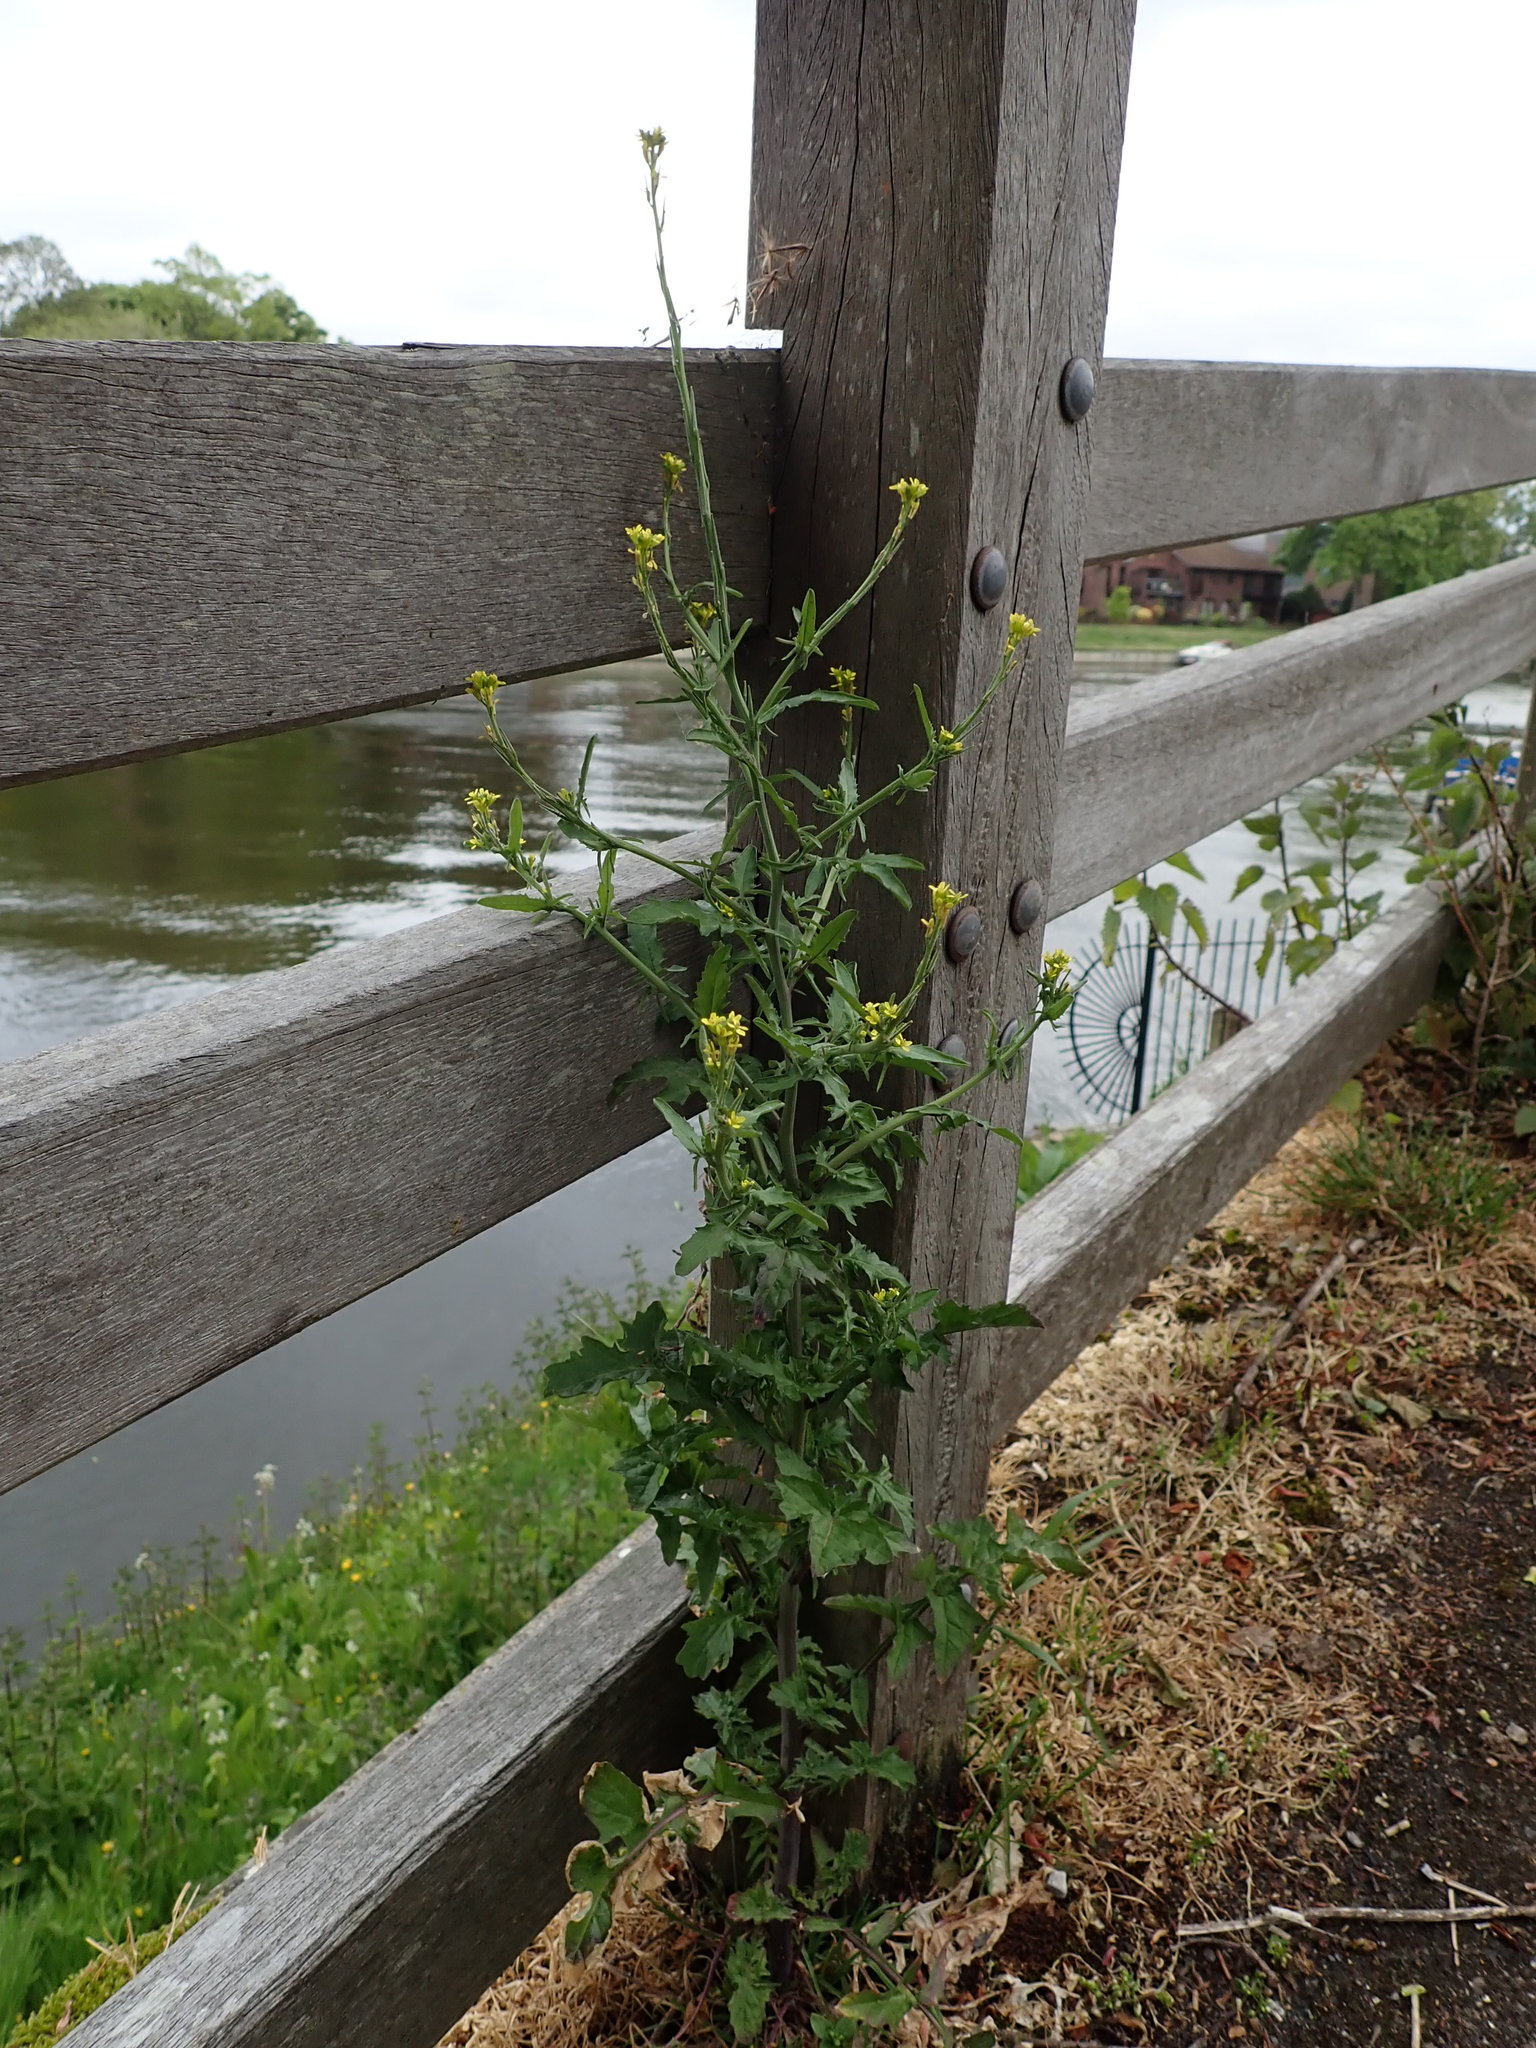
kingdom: Plantae
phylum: Tracheophyta
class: Magnoliopsida
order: Brassicales
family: Brassicaceae
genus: Sisymbrium
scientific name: Sisymbrium officinale
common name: Hedge mustard
